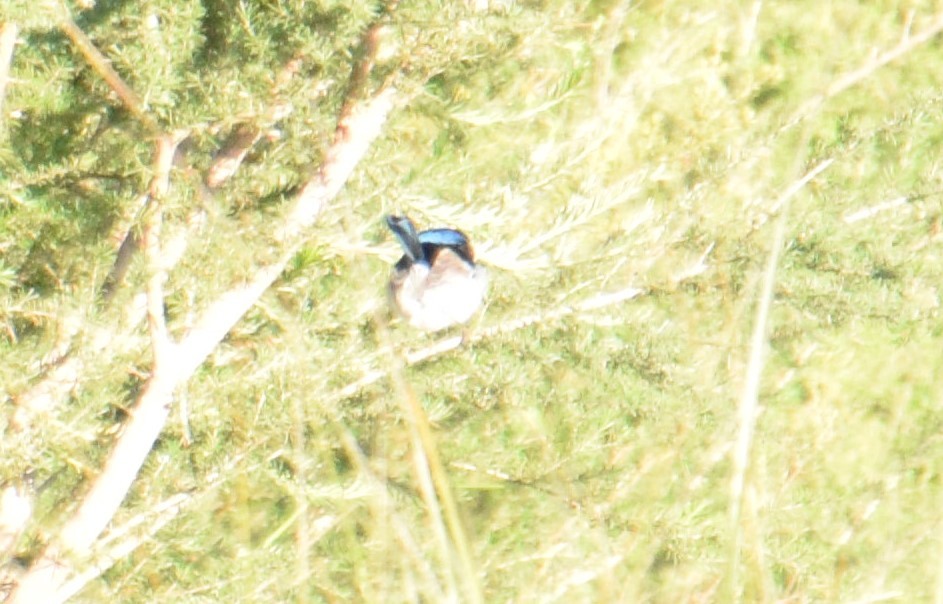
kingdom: Animalia
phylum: Chordata
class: Aves
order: Passeriformes
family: Maluridae
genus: Malurus
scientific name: Malurus cyaneus
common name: Superb fairywren
